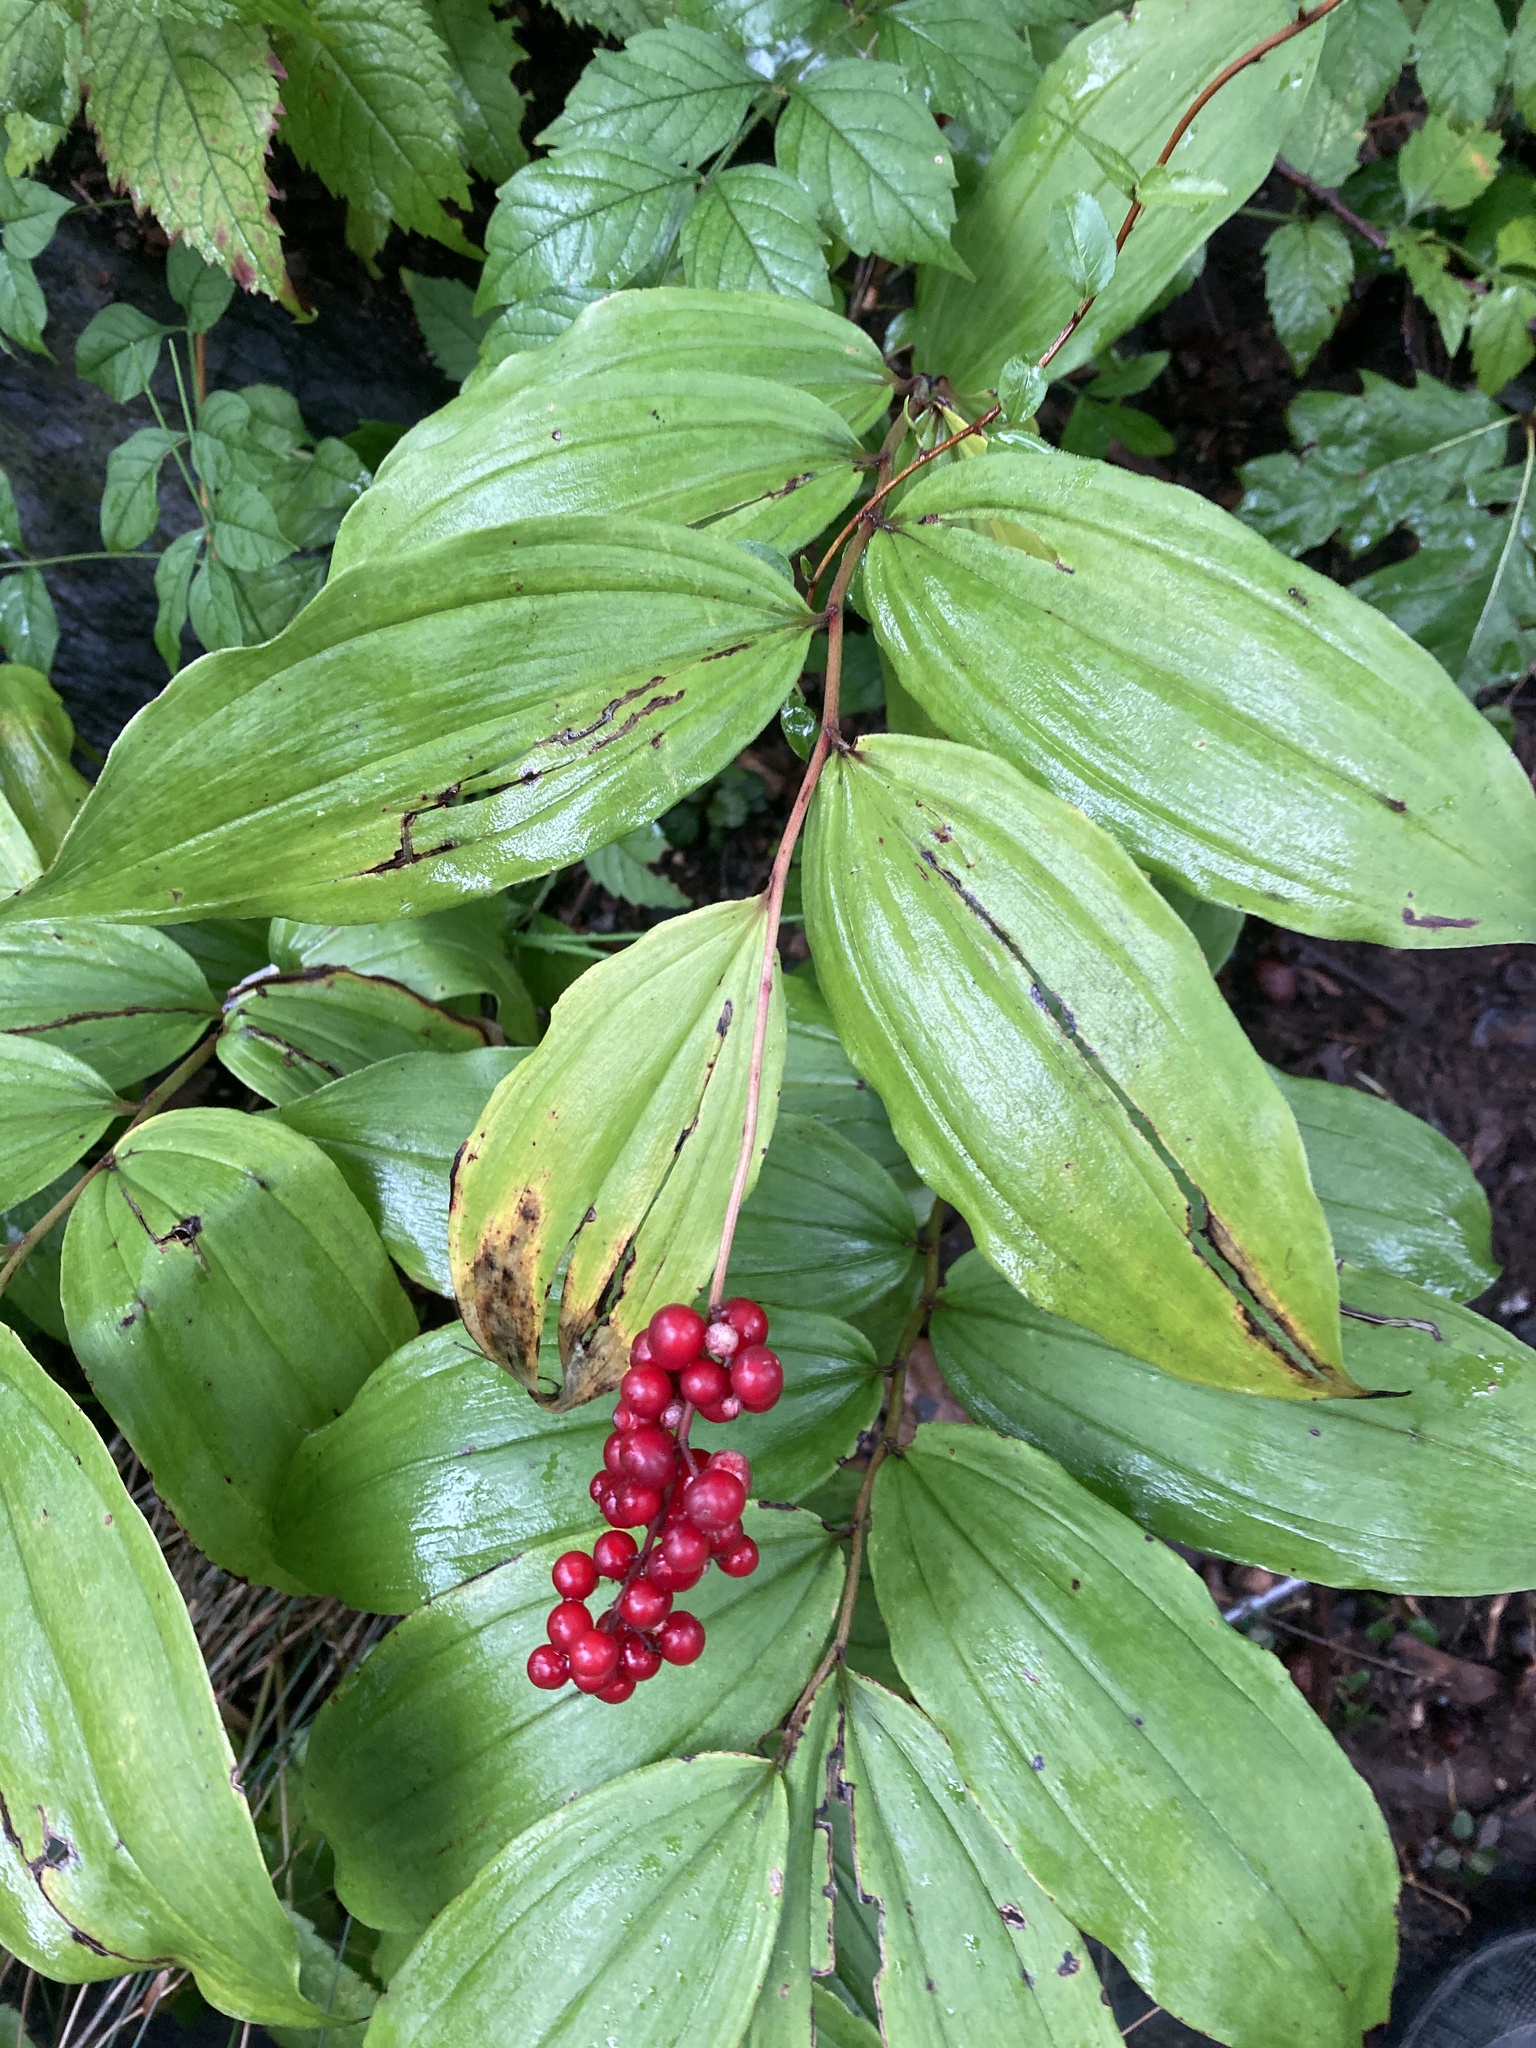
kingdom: Plantae
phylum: Tracheophyta
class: Liliopsida
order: Asparagales
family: Asparagaceae
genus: Maianthemum
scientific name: Maianthemum racemosum
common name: False spikenard
